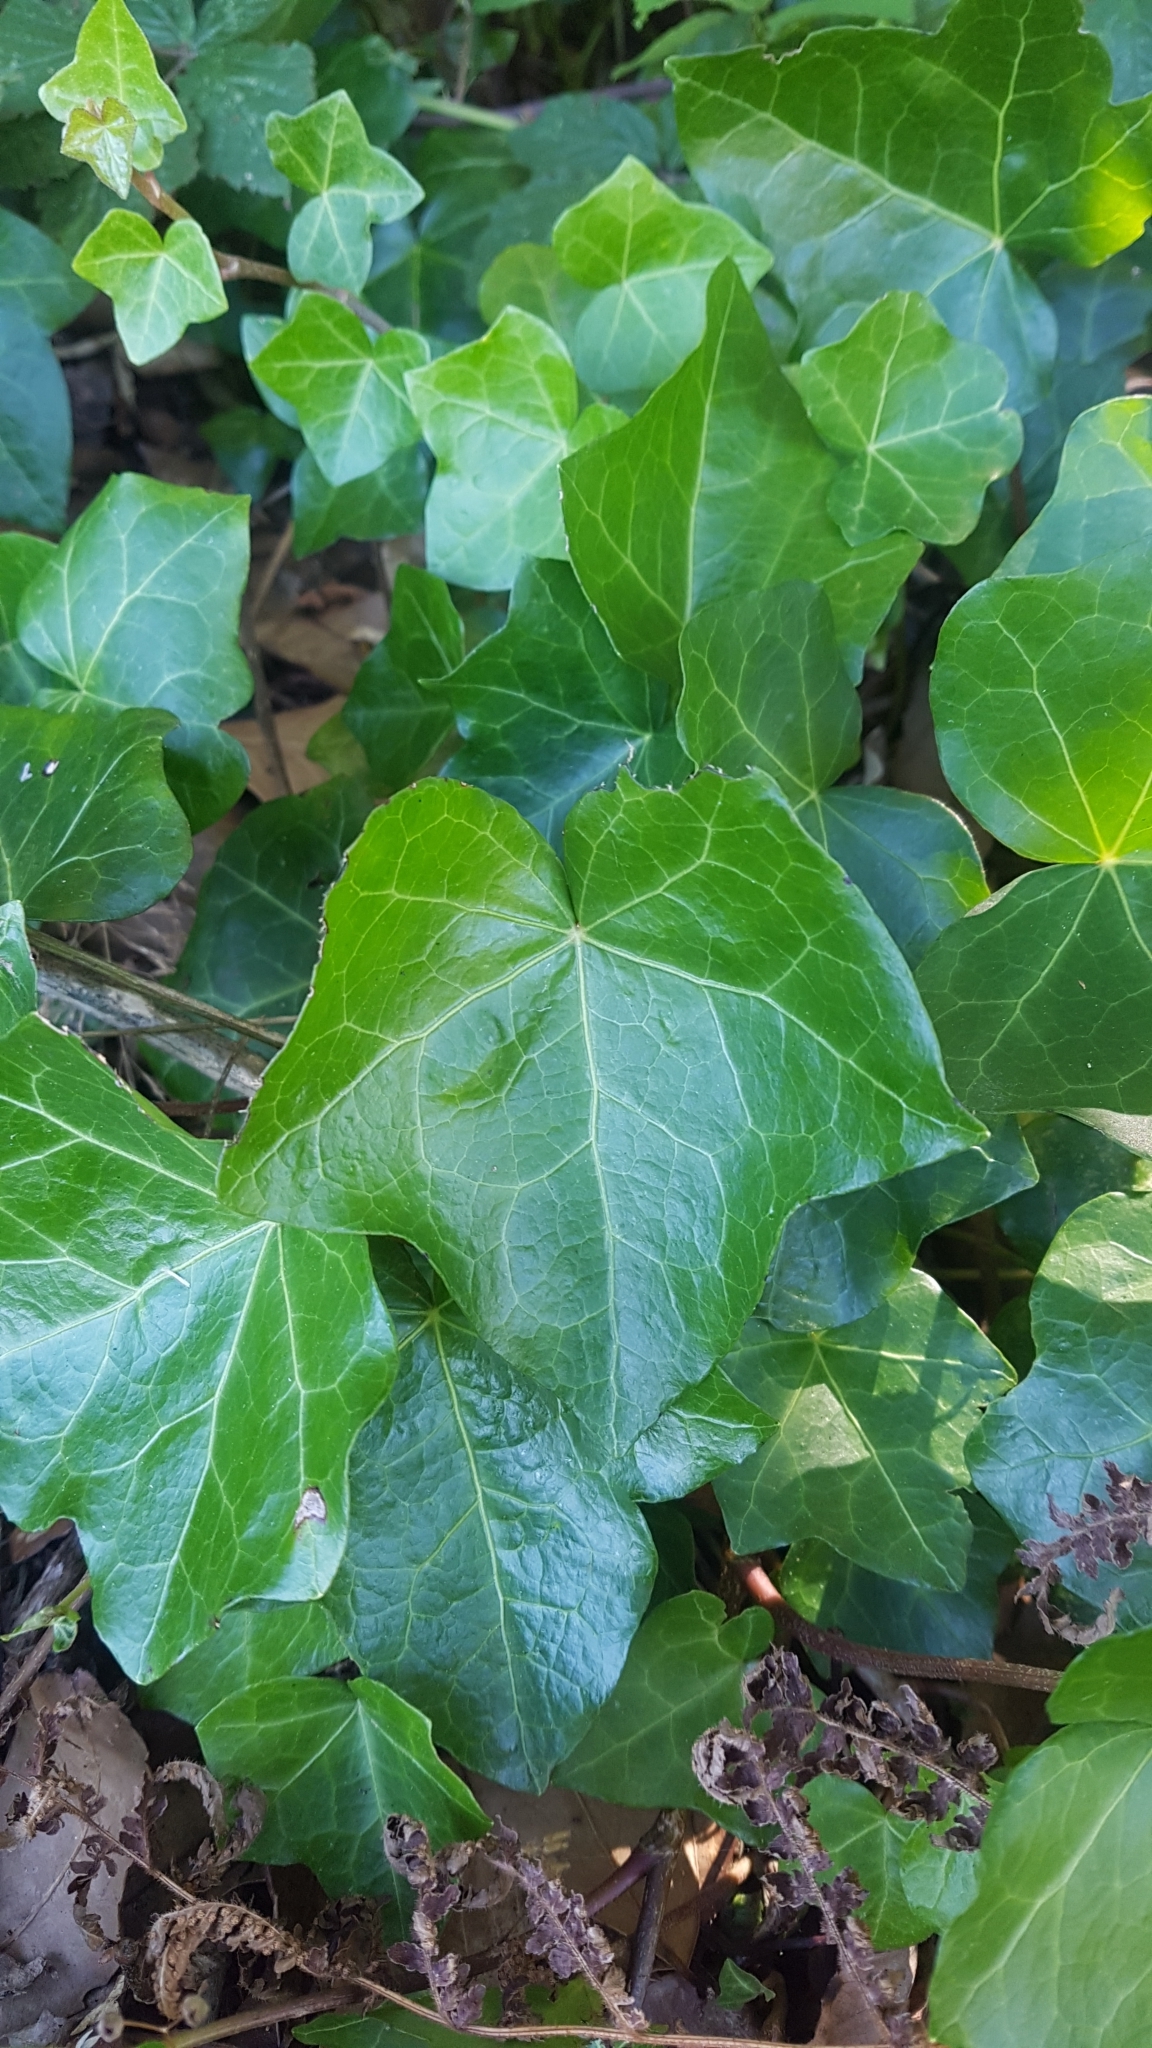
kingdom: Plantae
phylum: Tracheophyta
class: Magnoliopsida
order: Apiales
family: Araliaceae
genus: Hedera
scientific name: Hedera helix
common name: Ivy
